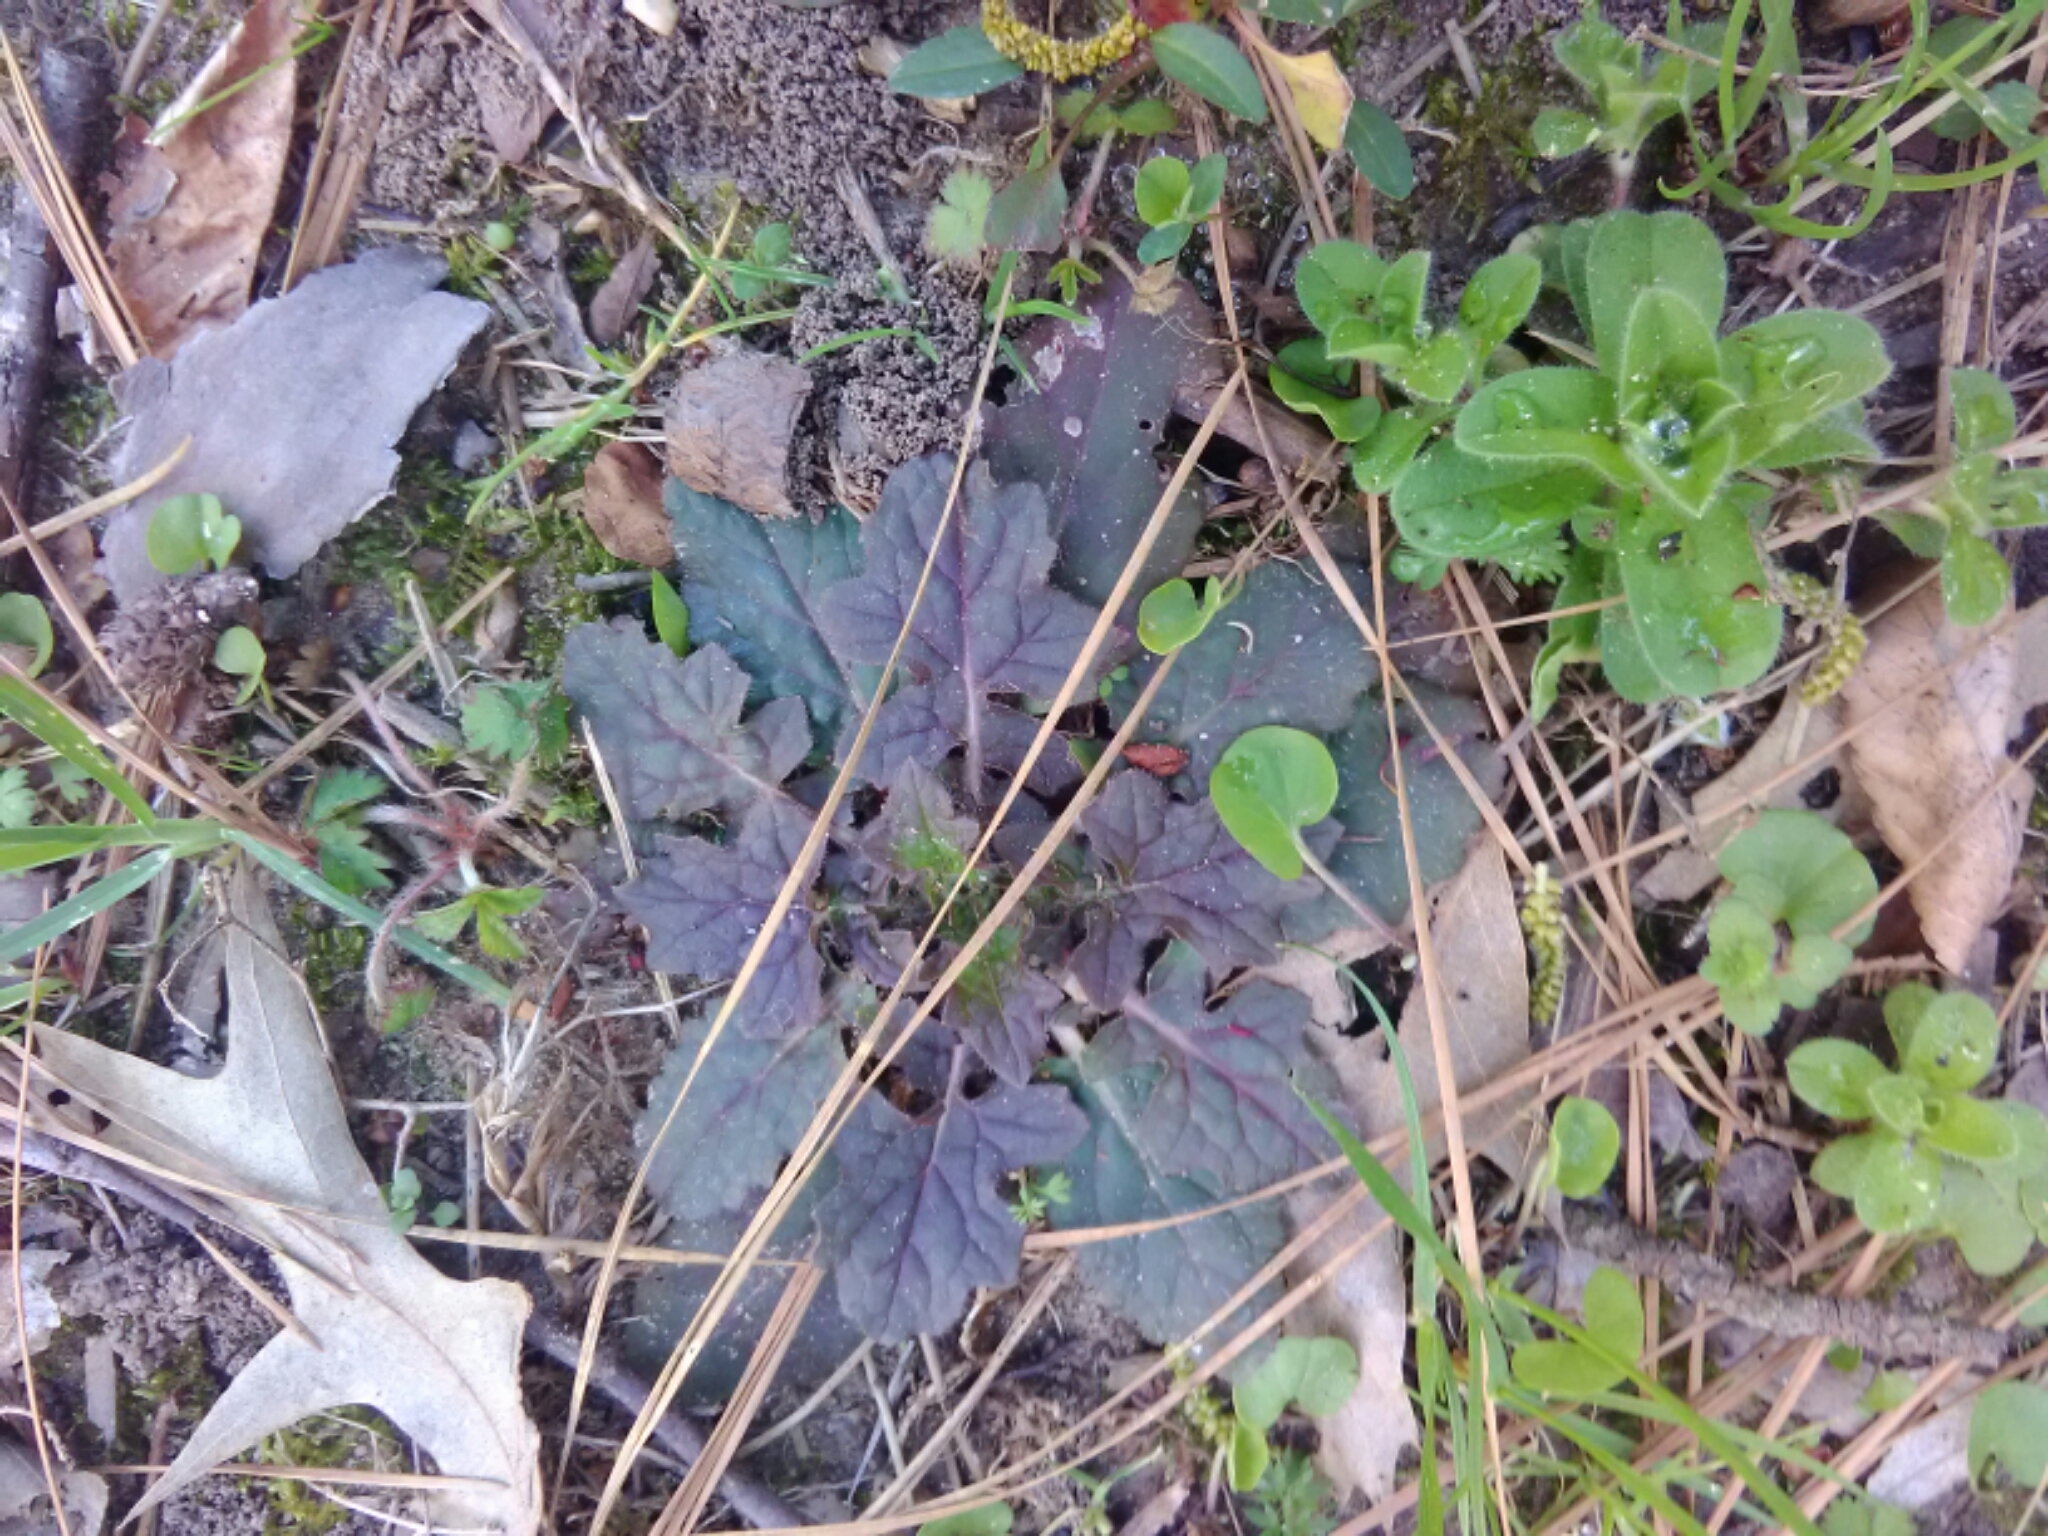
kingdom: Plantae
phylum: Tracheophyta
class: Magnoliopsida
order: Lamiales
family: Lamiaceae
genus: Salvia
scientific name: Salvia lyrata
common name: Cancerweed
